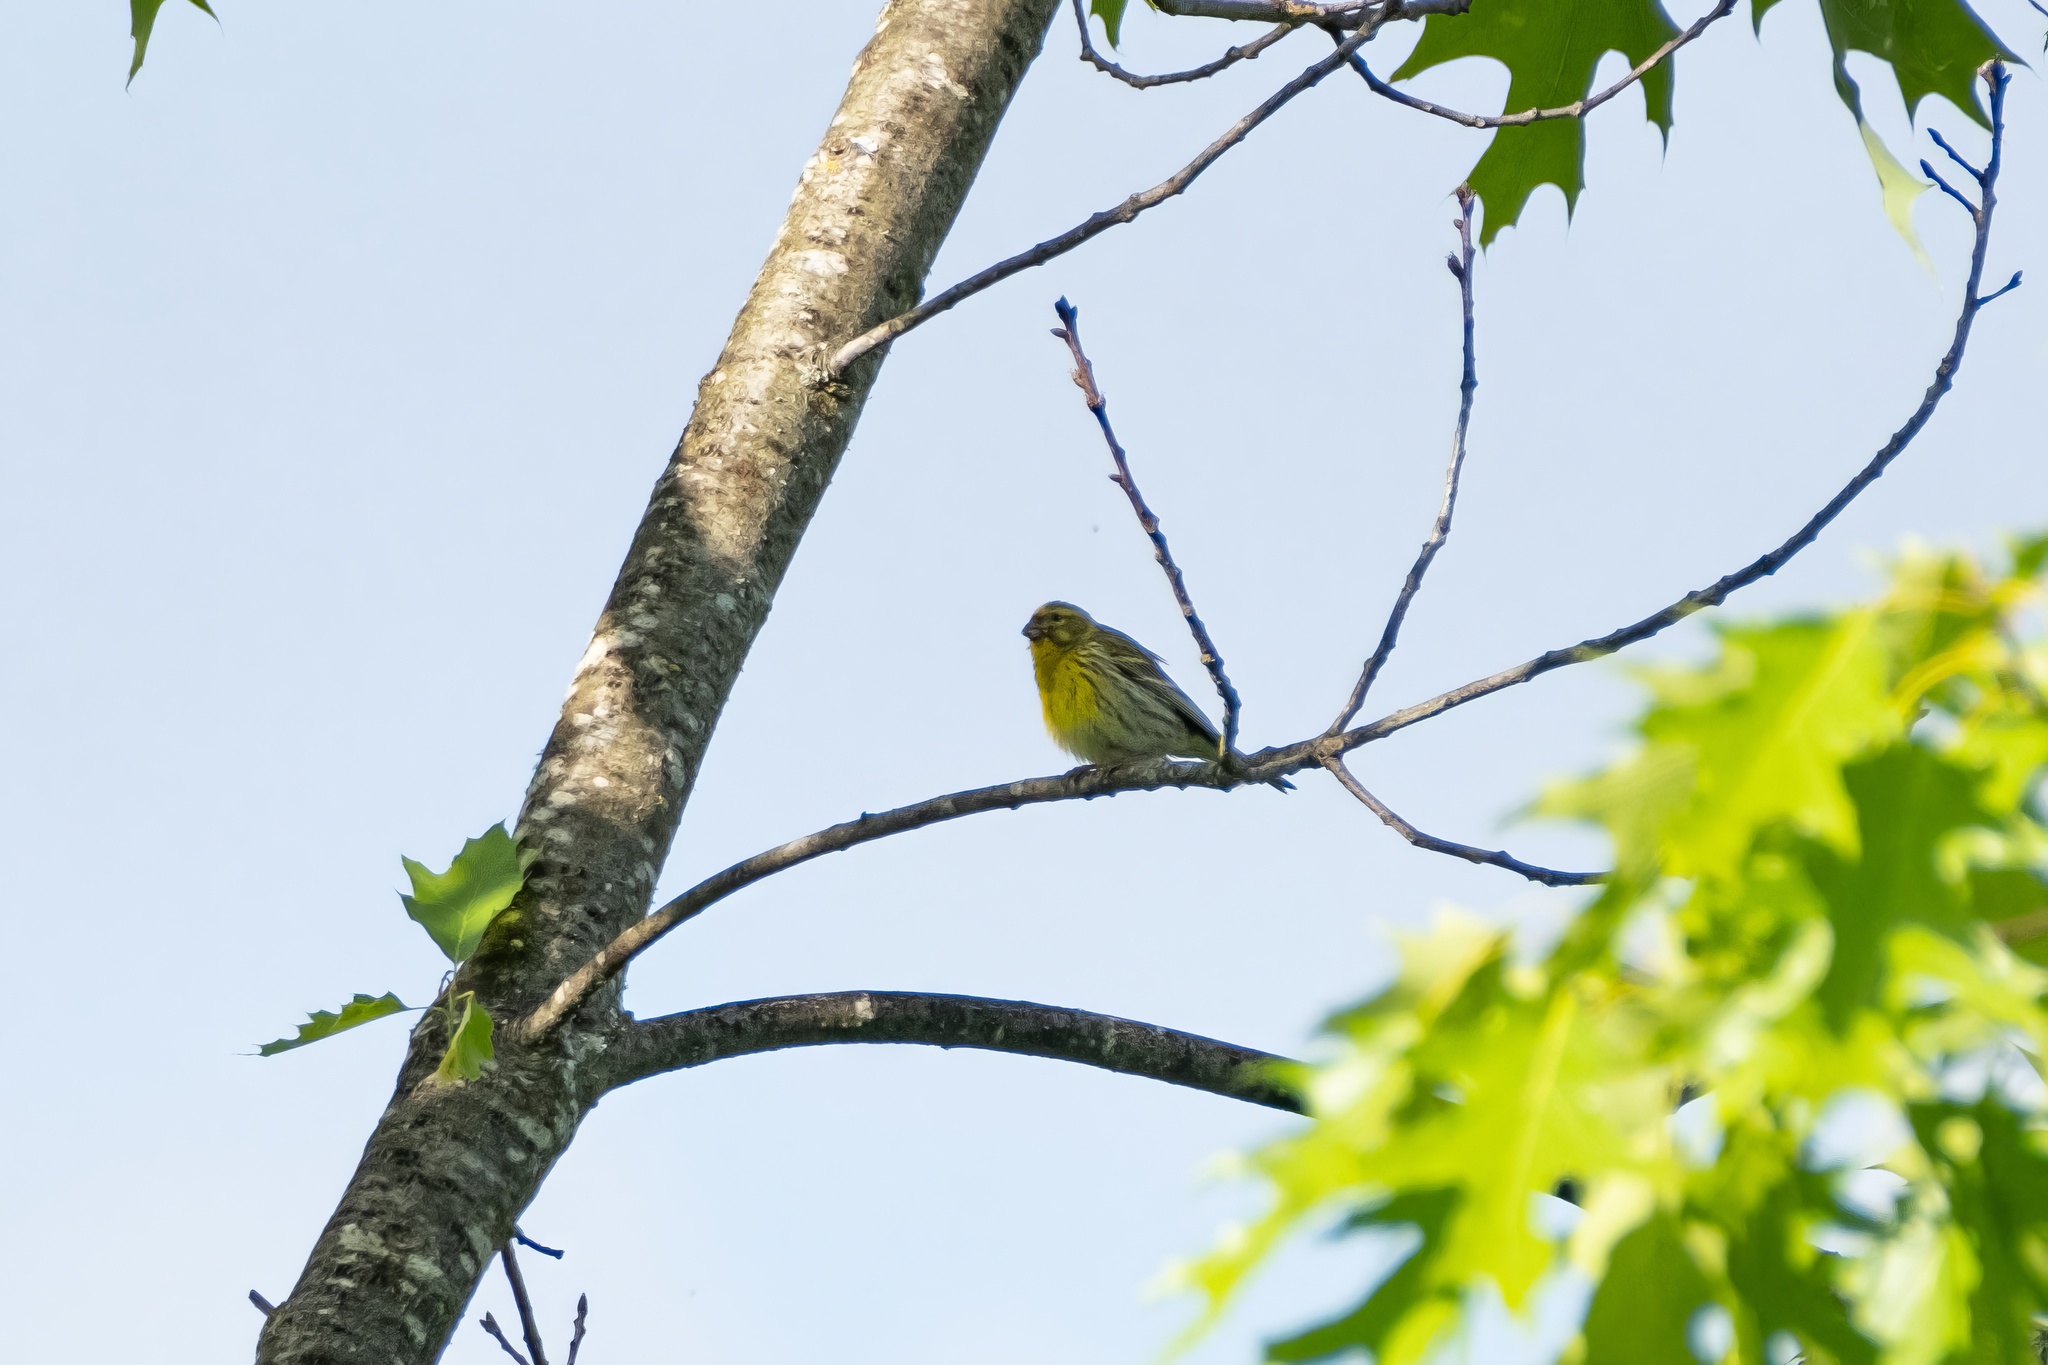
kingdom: Animalia
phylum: Chordata
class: Aves
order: Passeriformes
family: Fringillidae
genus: Serinus
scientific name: Serinus serinus
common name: European serin
